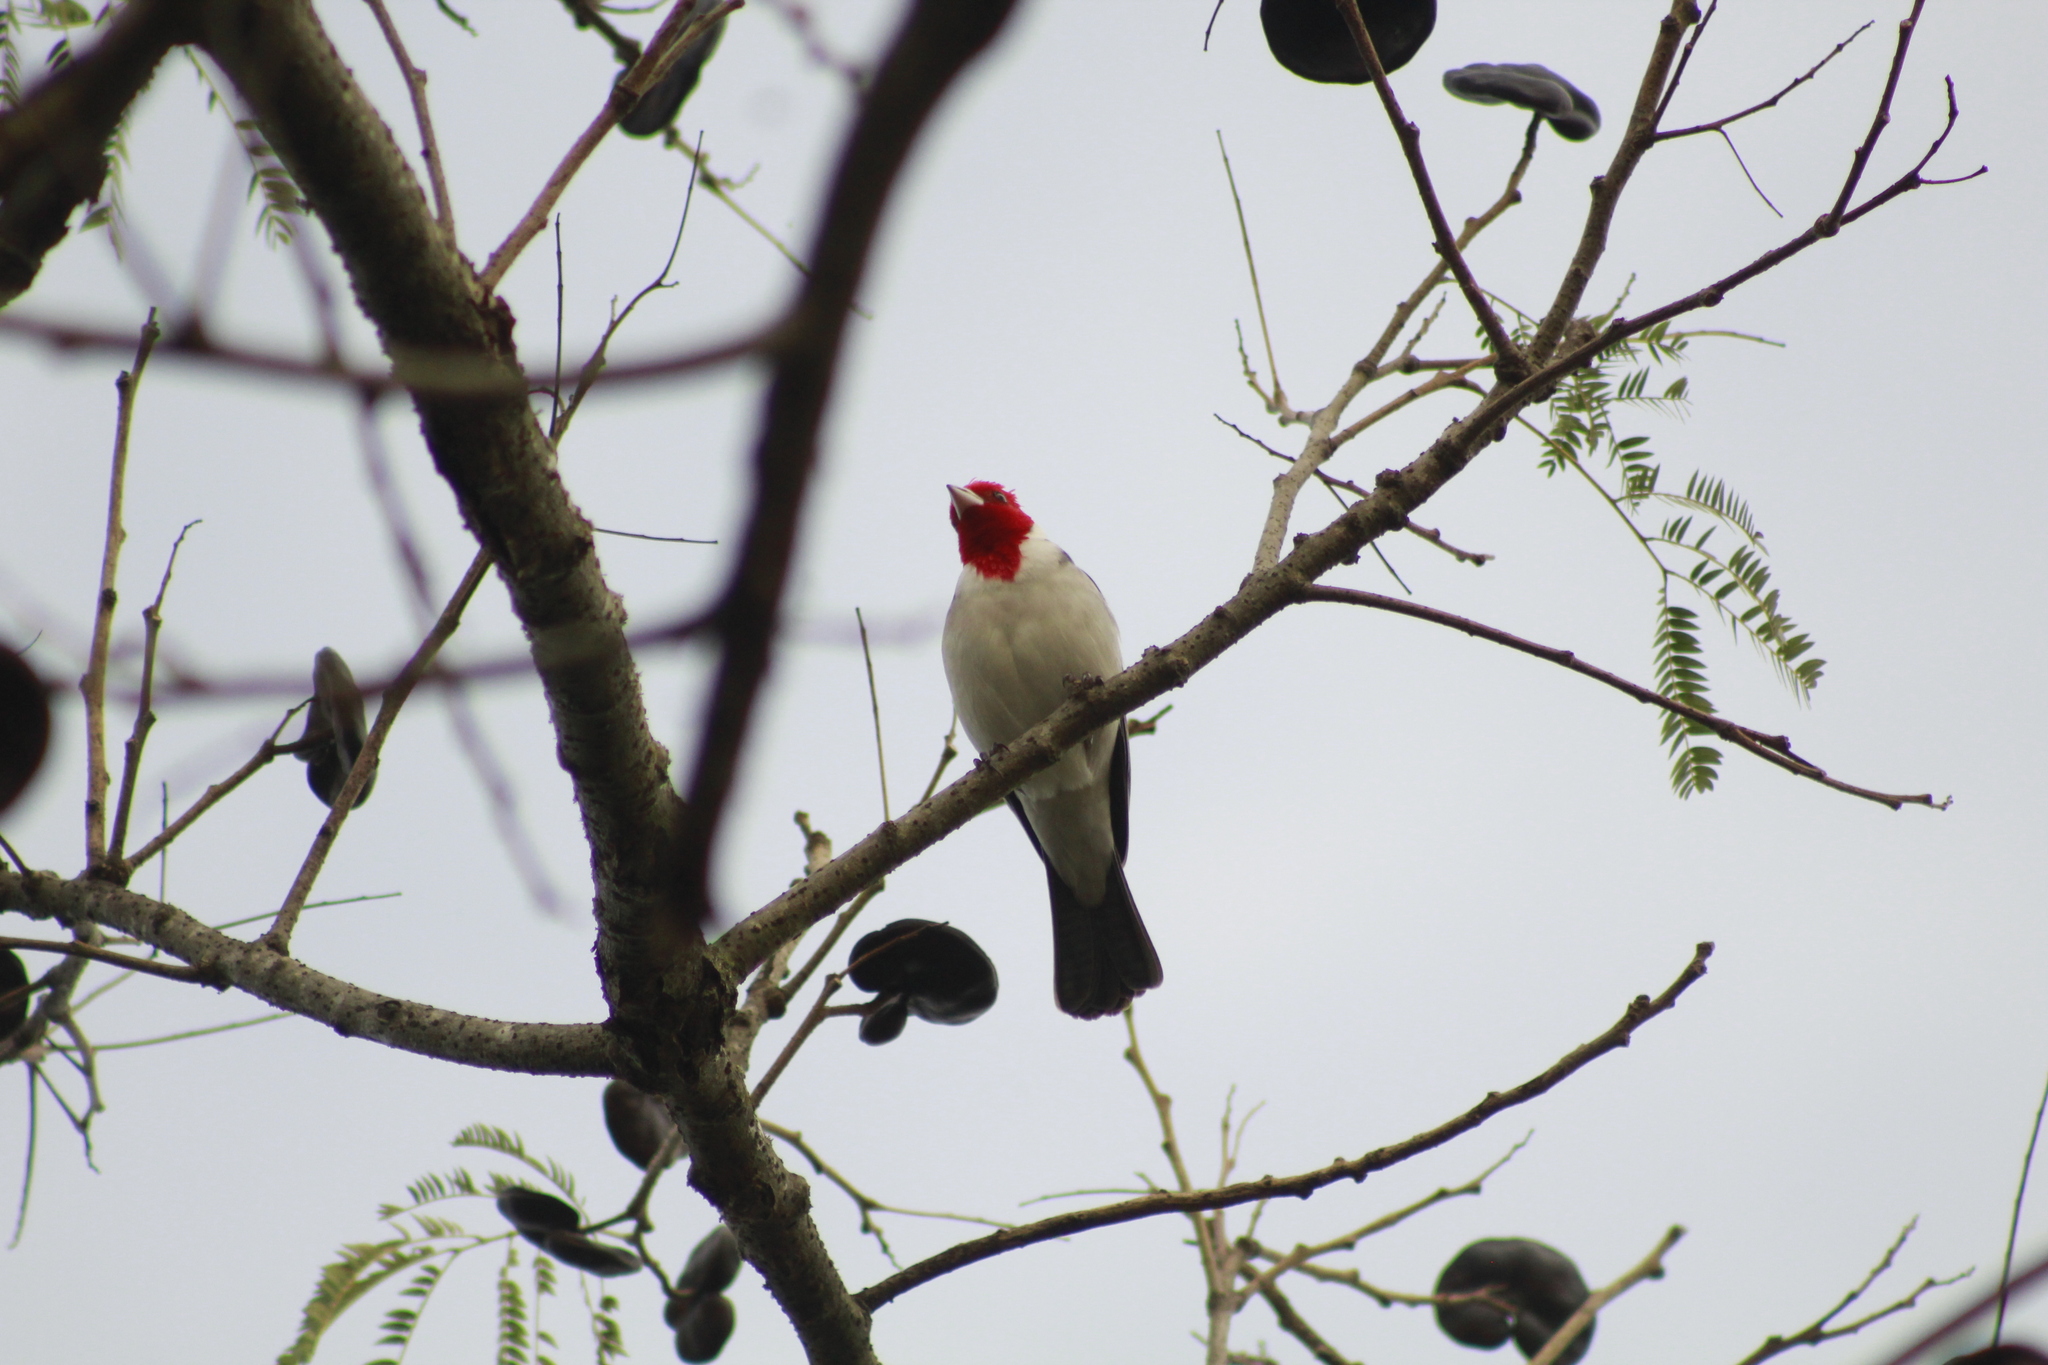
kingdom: Animalia
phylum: Chordata
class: Aves
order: Passeriformes
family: Thraupidae
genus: Paroaria
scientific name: Paroaria coronata
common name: Red-crested cardinal
